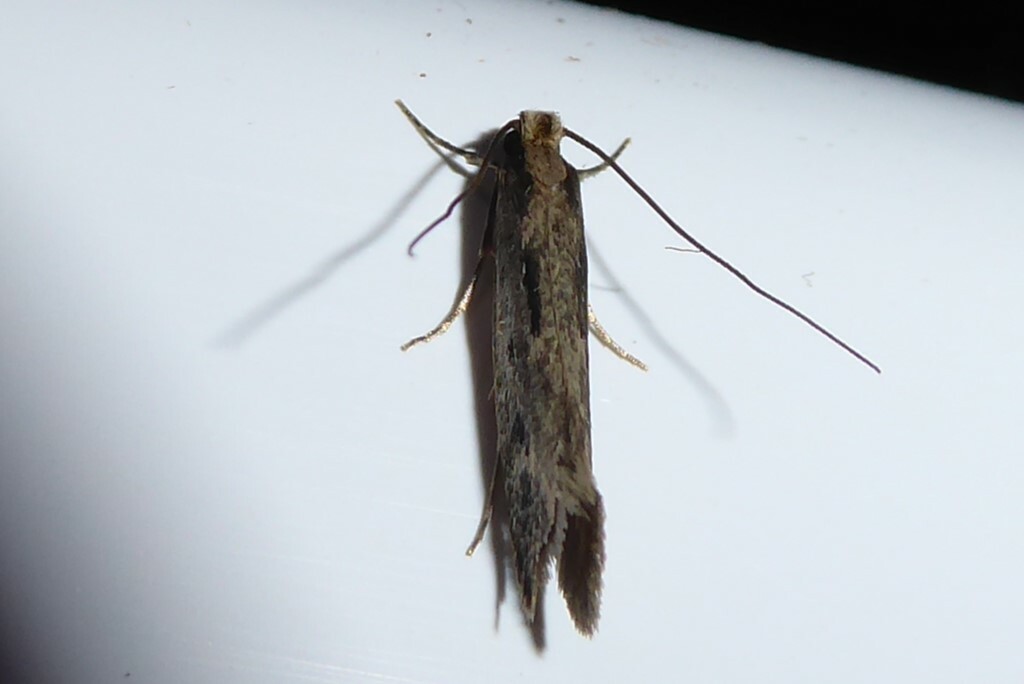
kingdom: Animalia
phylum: Arthropoda
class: Insecta
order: Lepidoptera
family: Tineidae
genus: Tinea
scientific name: Tinea pallescentella
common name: Large pale clothes moth
